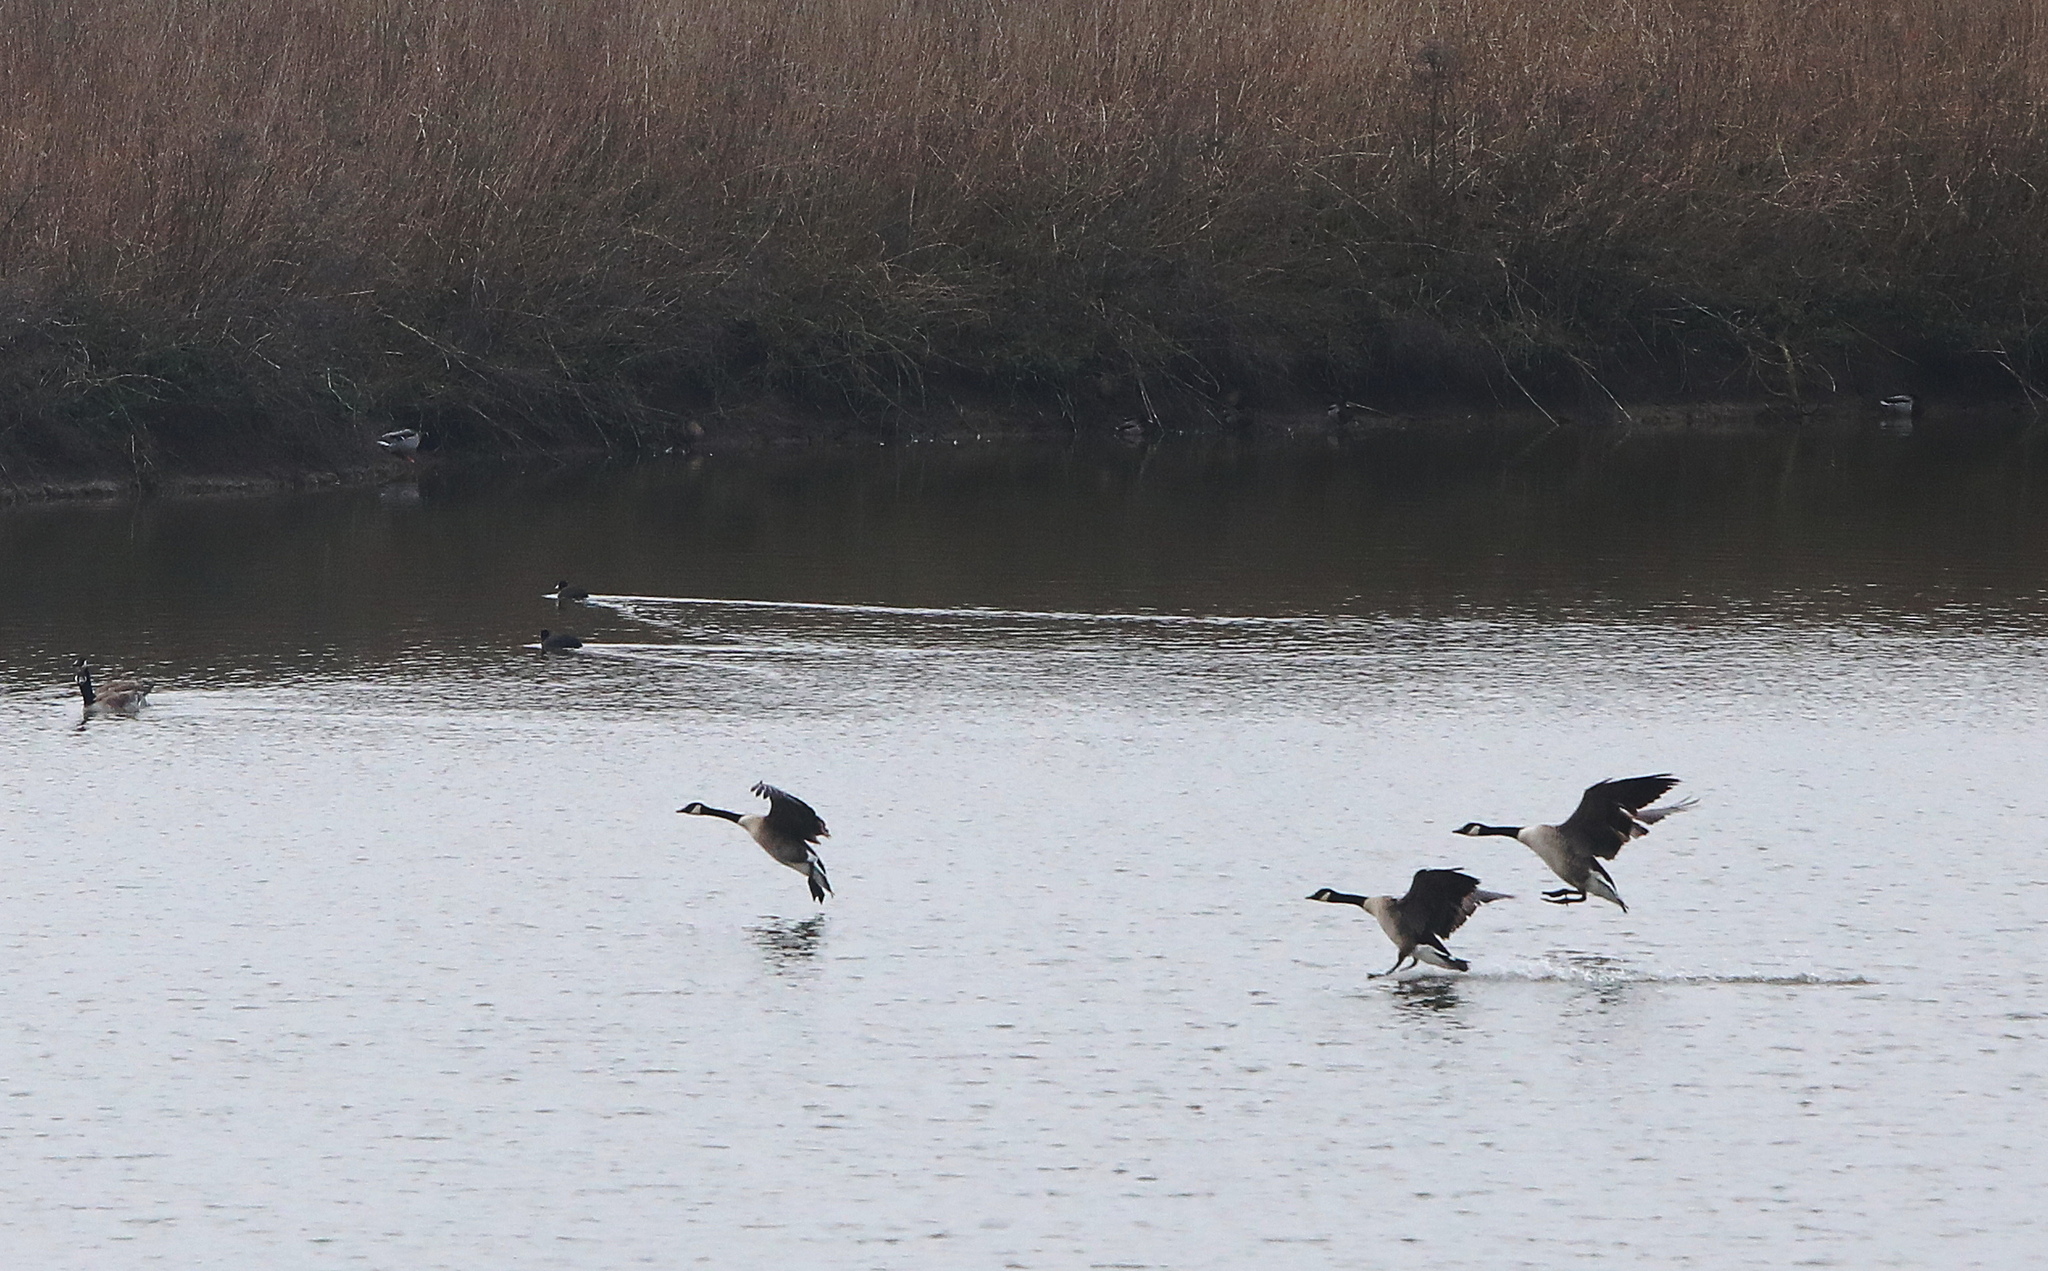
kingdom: Animalia
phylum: Chordata
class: Aves
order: Anseriformes
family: Anatidae
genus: Branta
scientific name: Branta canadensis
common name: Canada goose
